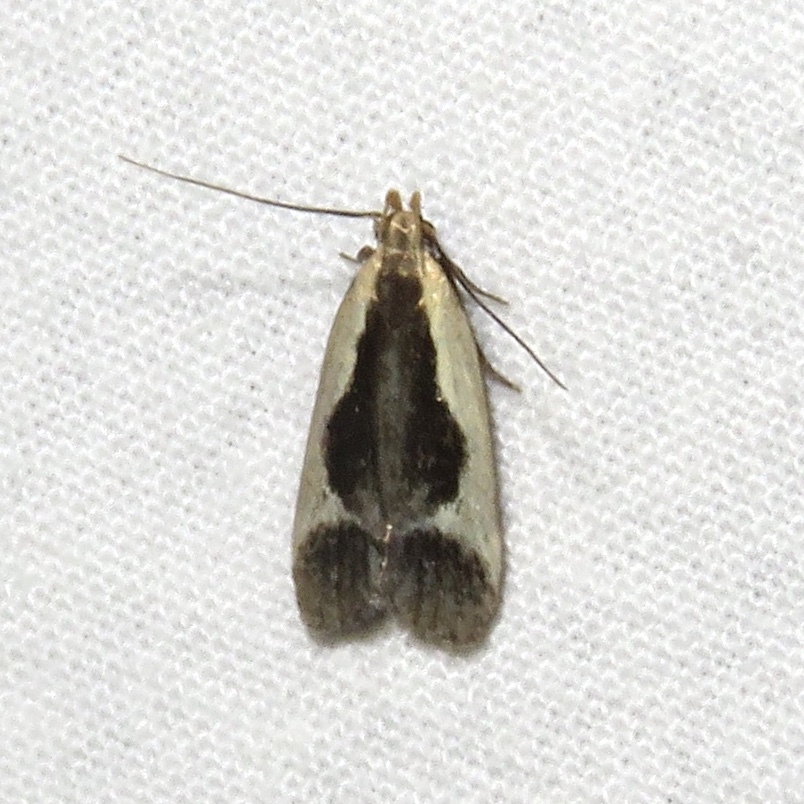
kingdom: Animalia
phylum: Arthropoda
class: Insecta
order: Lepidoptera
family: Gelechiidae
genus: Dichomeris
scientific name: Dichomeris flavocostella
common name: Cream-edged dichomeris moth
